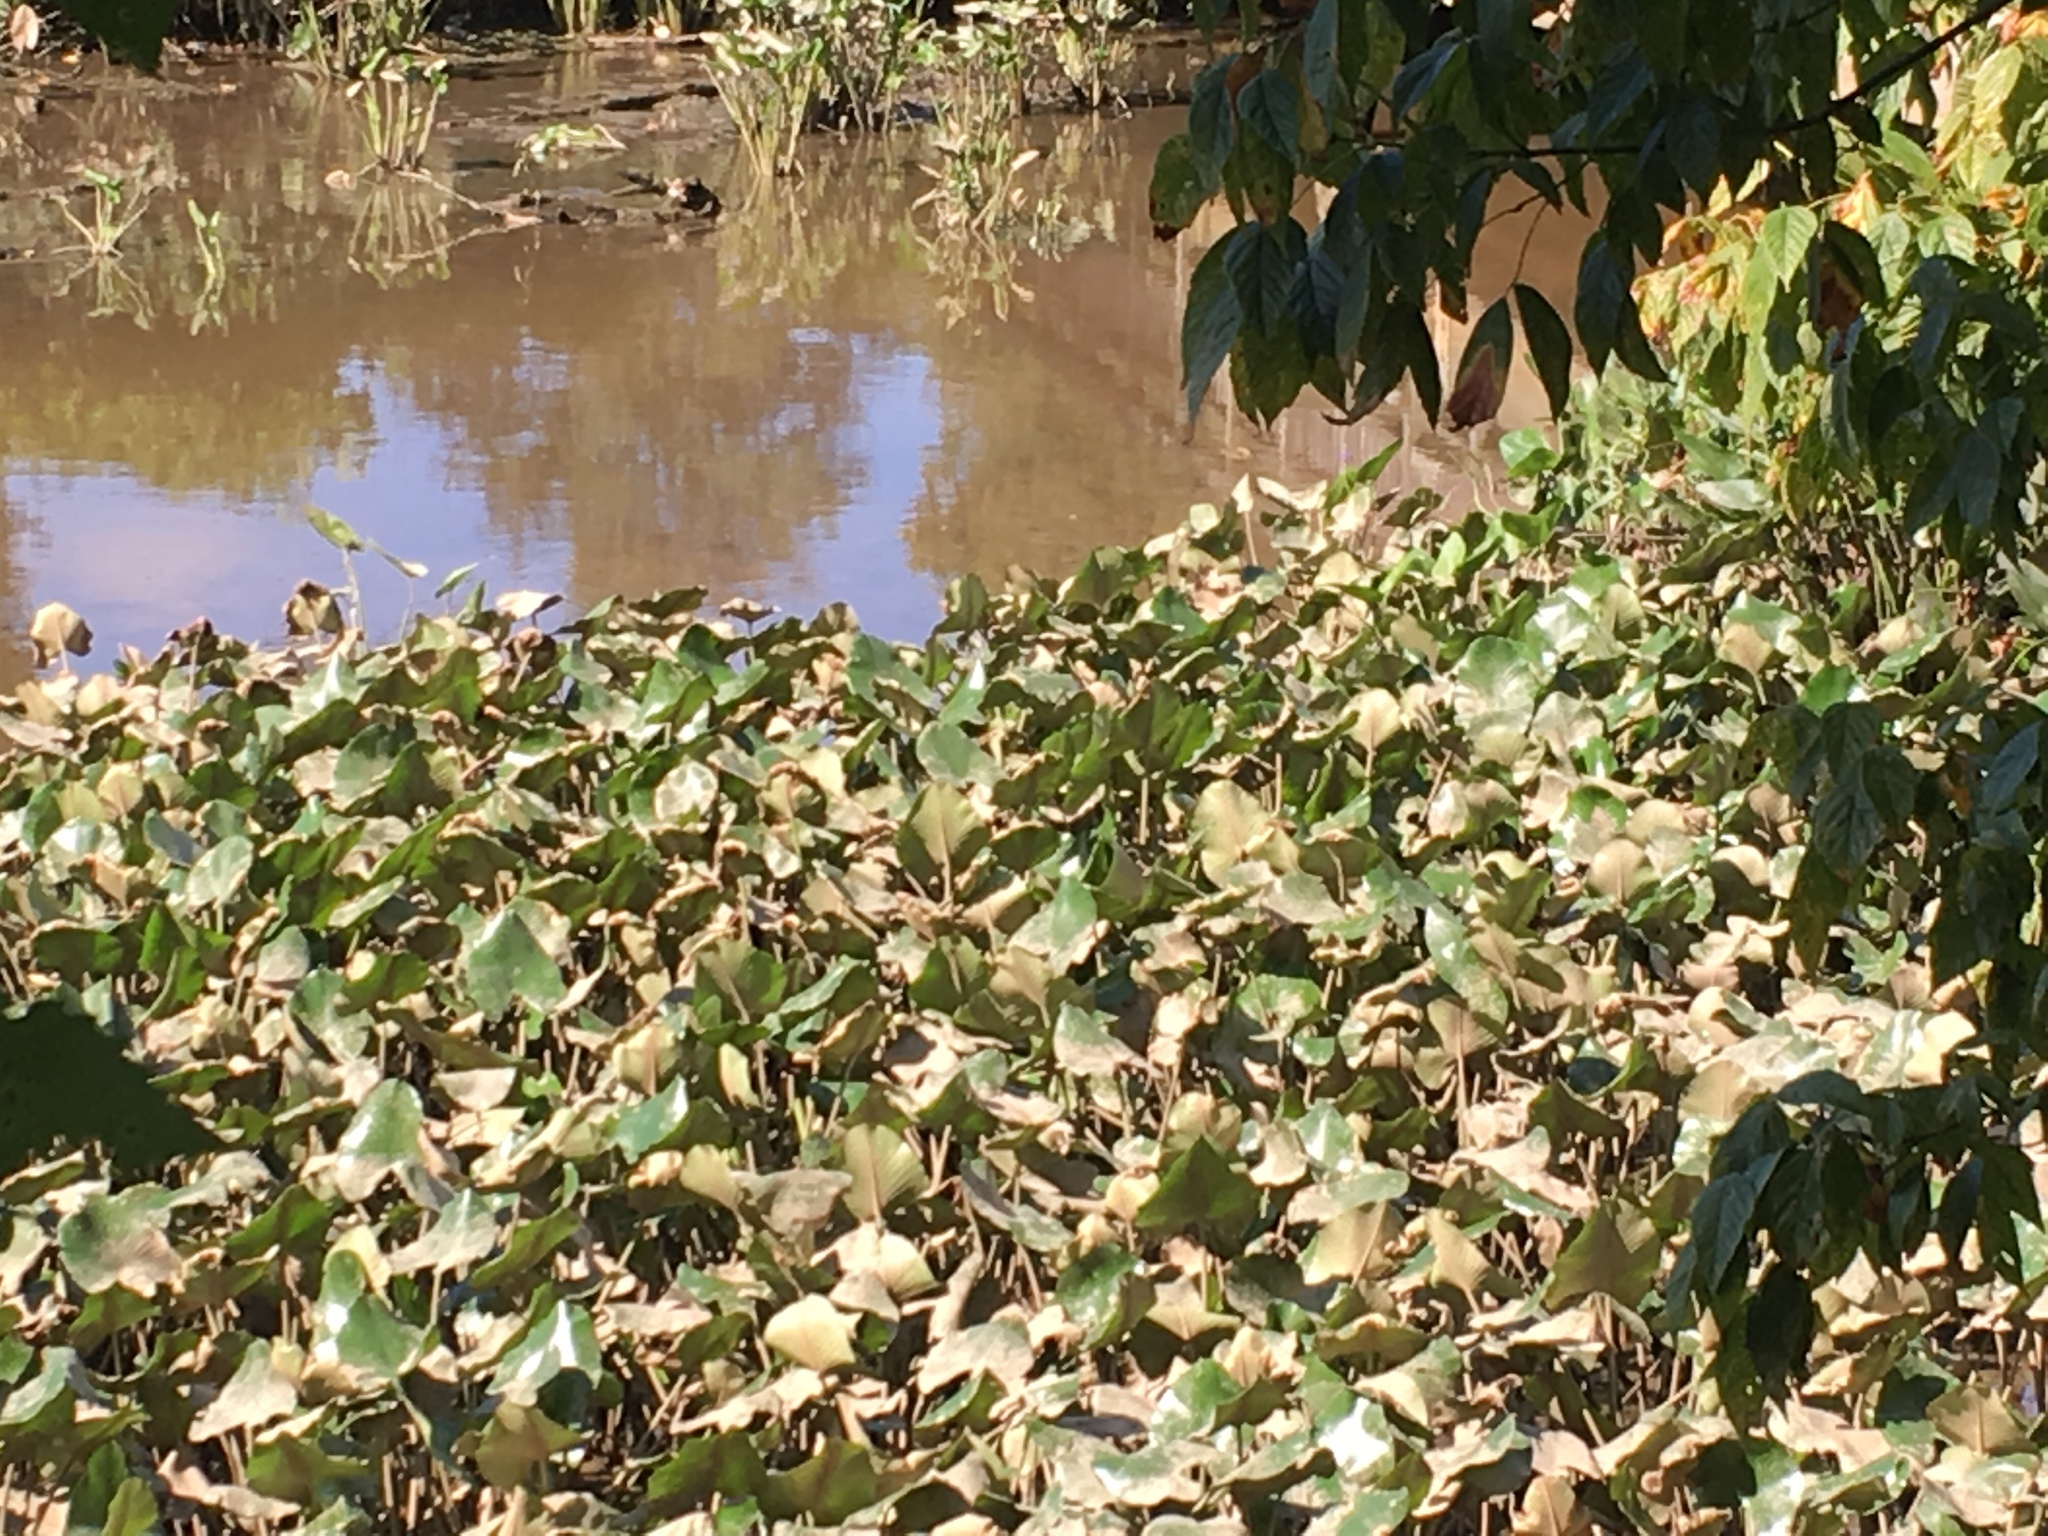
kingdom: Plantae
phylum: Tracheophyta
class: Magnoliopsida
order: Nymphaeales
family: Nymphaeaceae
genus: Nuphar
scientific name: Nuphar advena
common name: Spatter-dock
